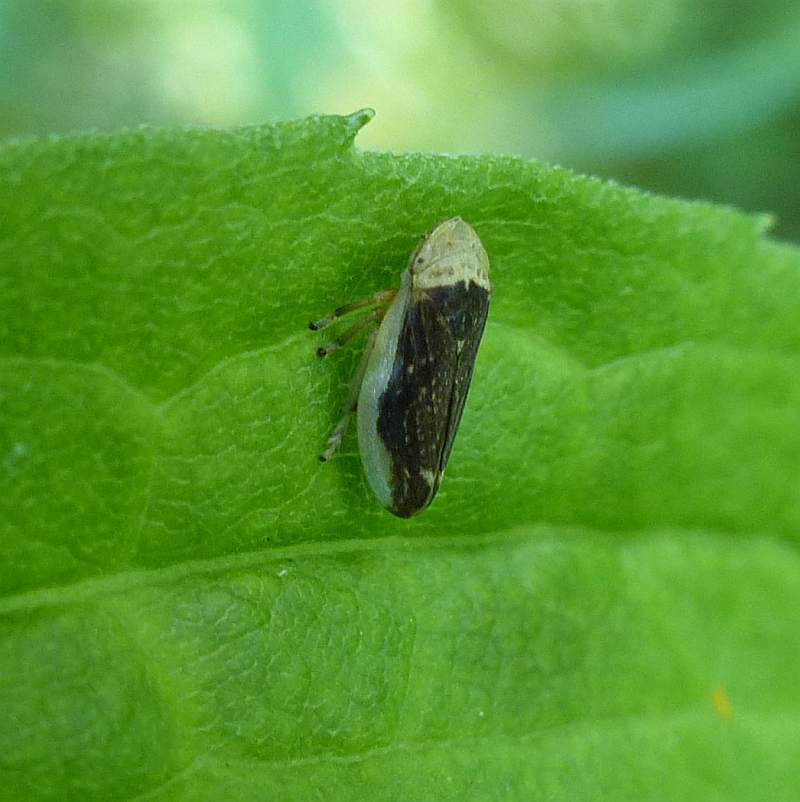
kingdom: Animalia
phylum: Arthropoda
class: Insecta
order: Hemiptera
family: Aphrophoridae
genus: Philaenus
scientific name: Philaenus spumarius
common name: Meadow spittlebug
